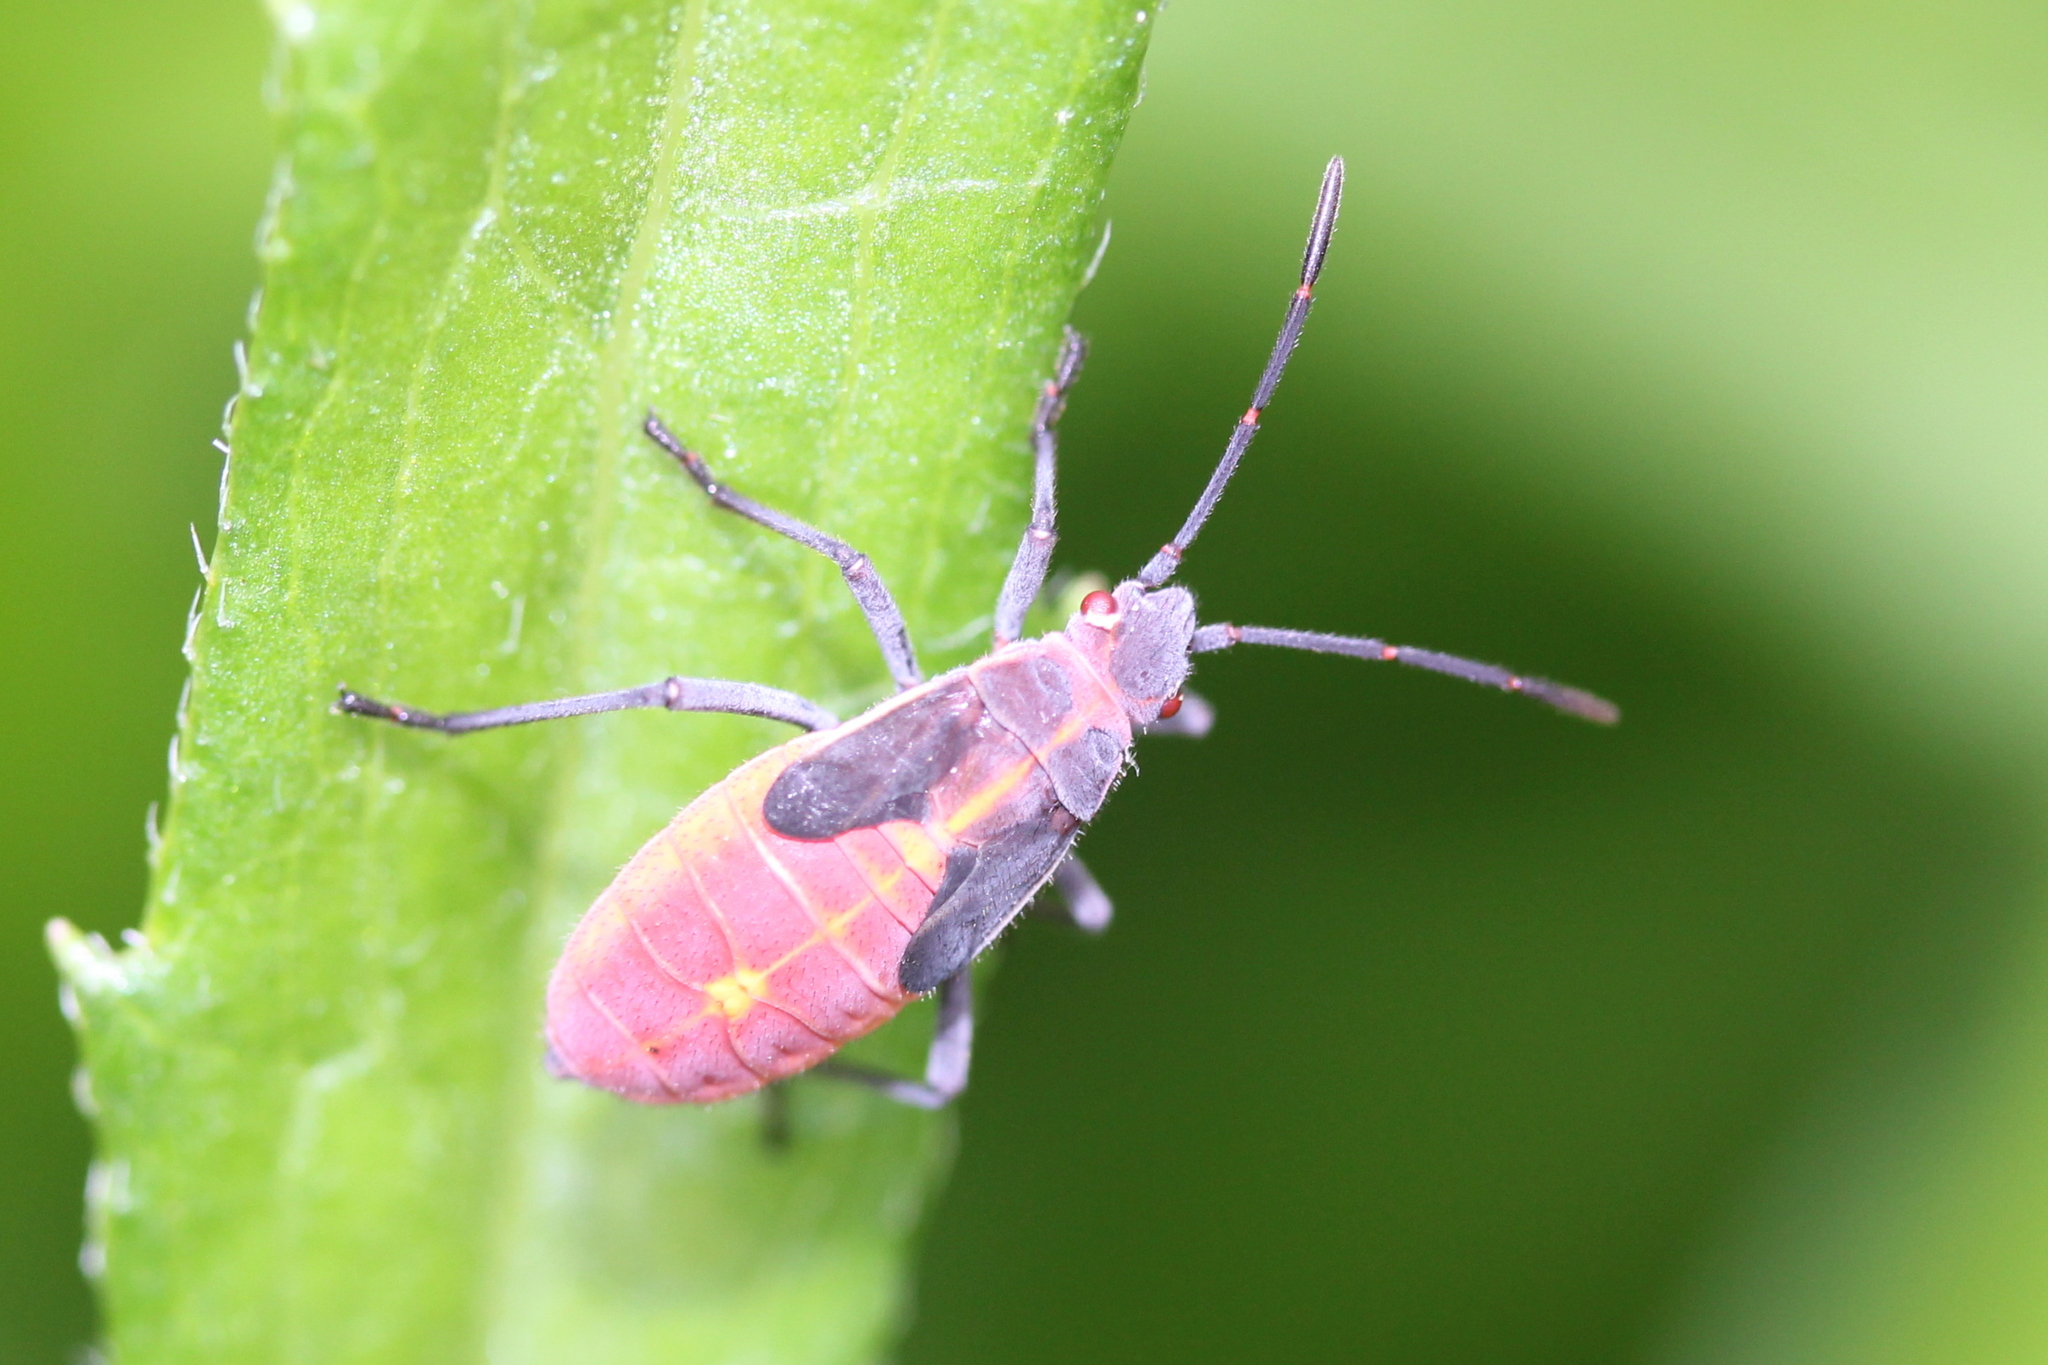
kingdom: Animalia
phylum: Arthropoda
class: Insecta
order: Hemiptera
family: Rhopalidae
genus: Boisea
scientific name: Boisea trivittata
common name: Boxelder bug
